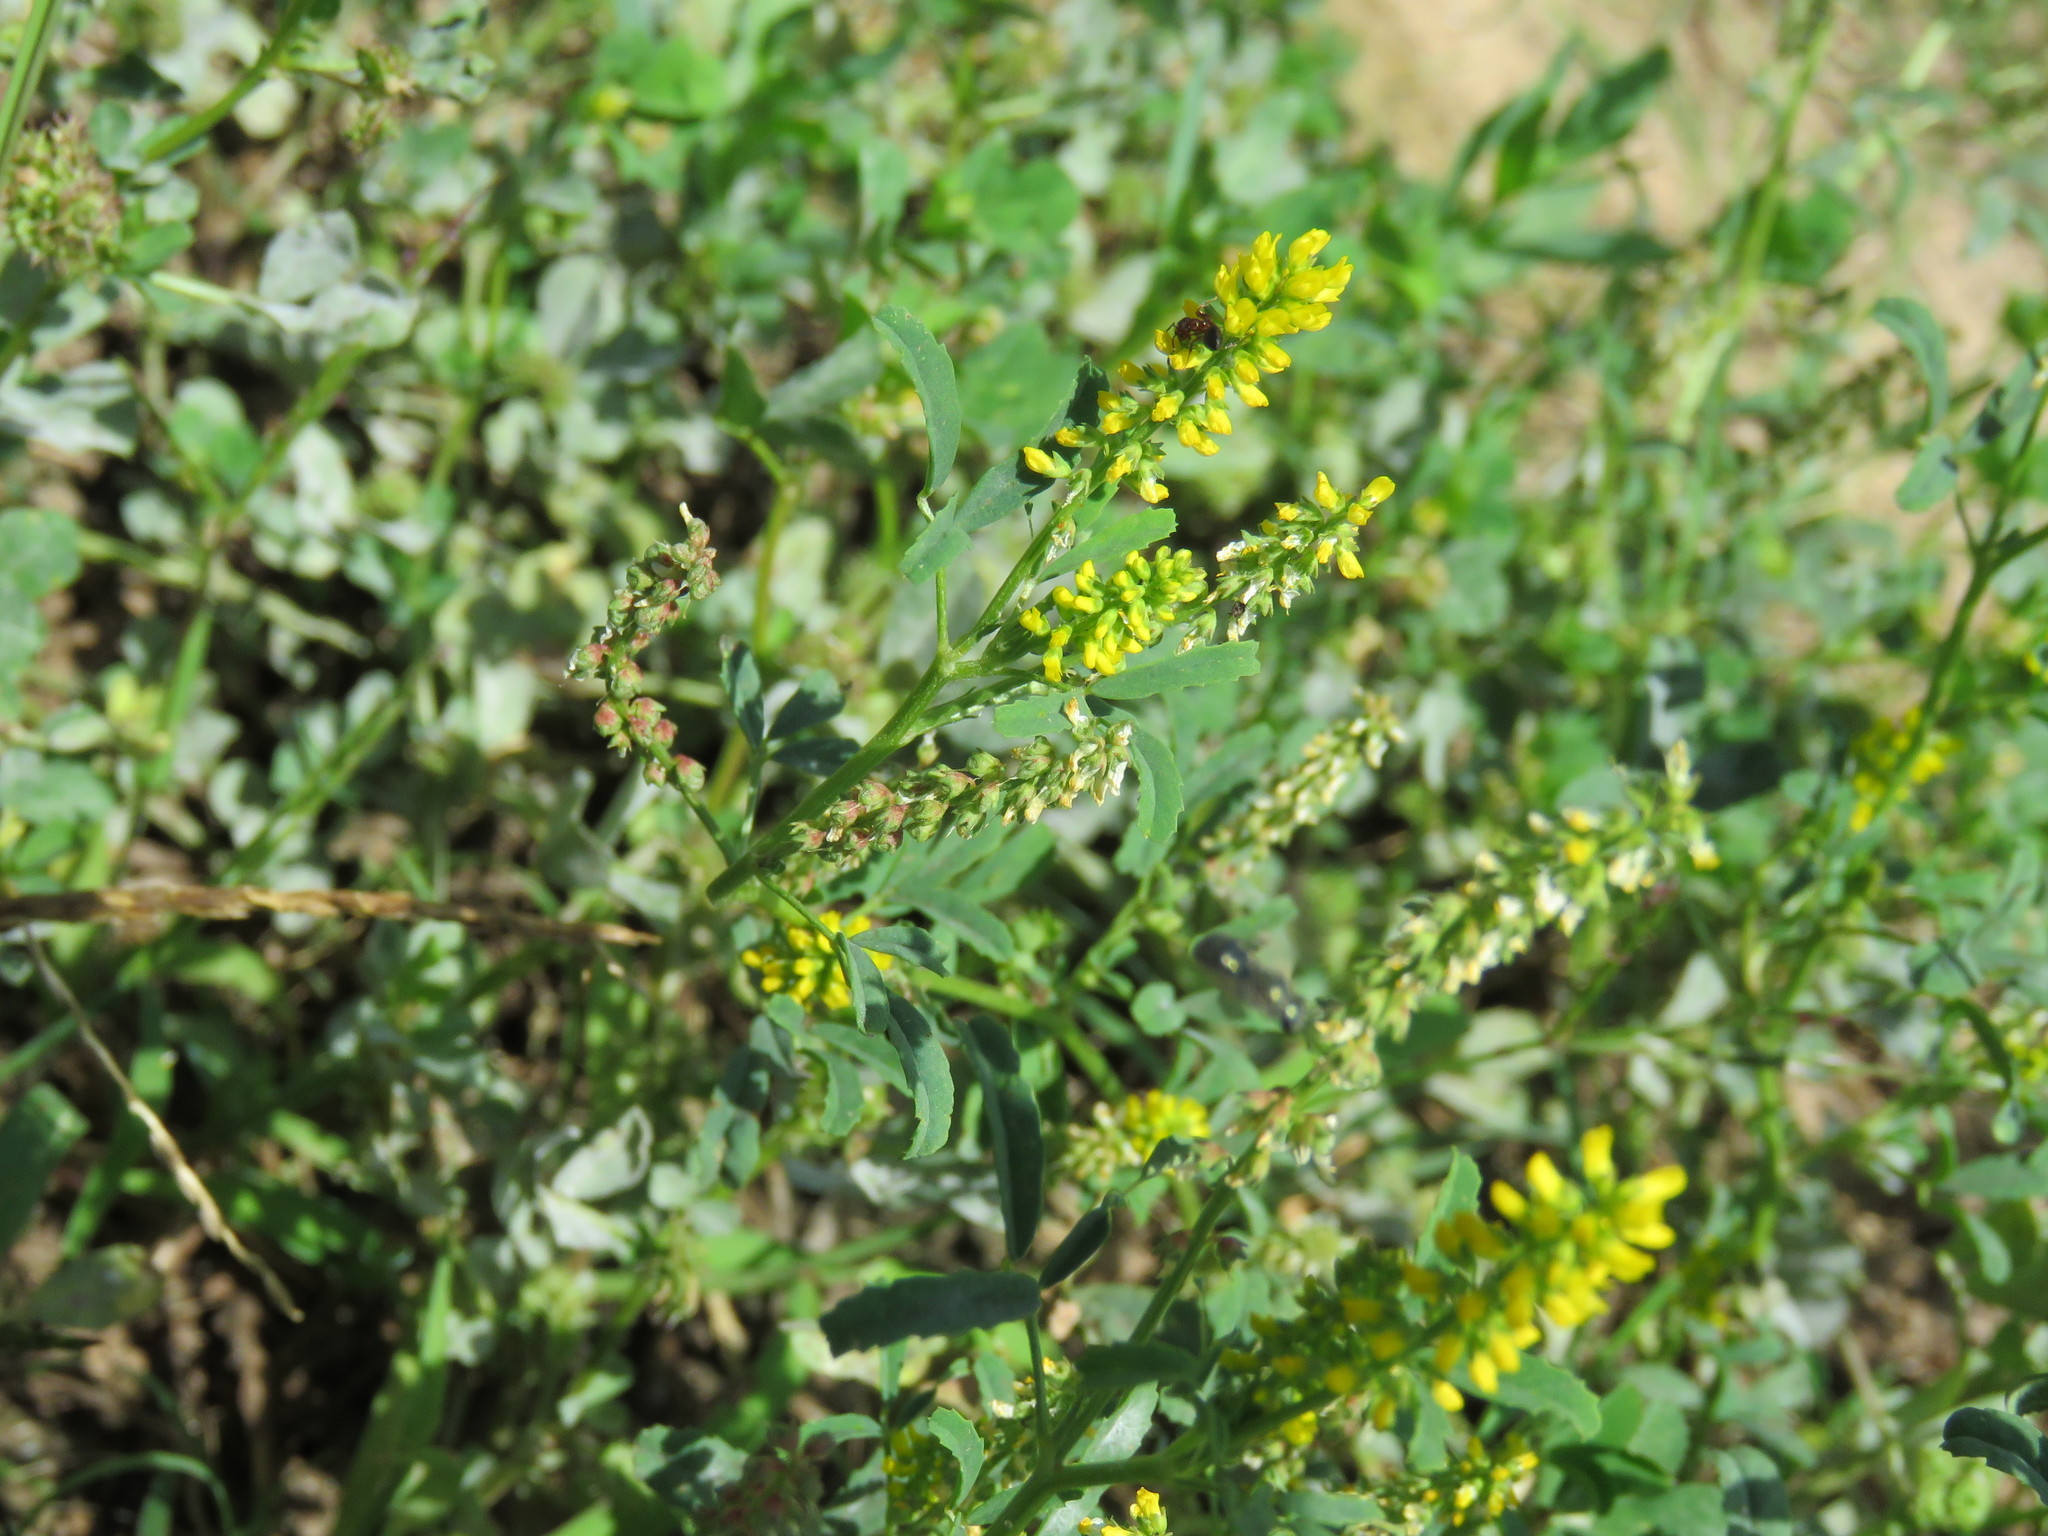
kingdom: Plantae
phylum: Tracheophyta
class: Magnoliopsida
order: Fabales
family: Fabaceae
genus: Melilotus
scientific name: Melilotus indicus
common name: Small melilot
